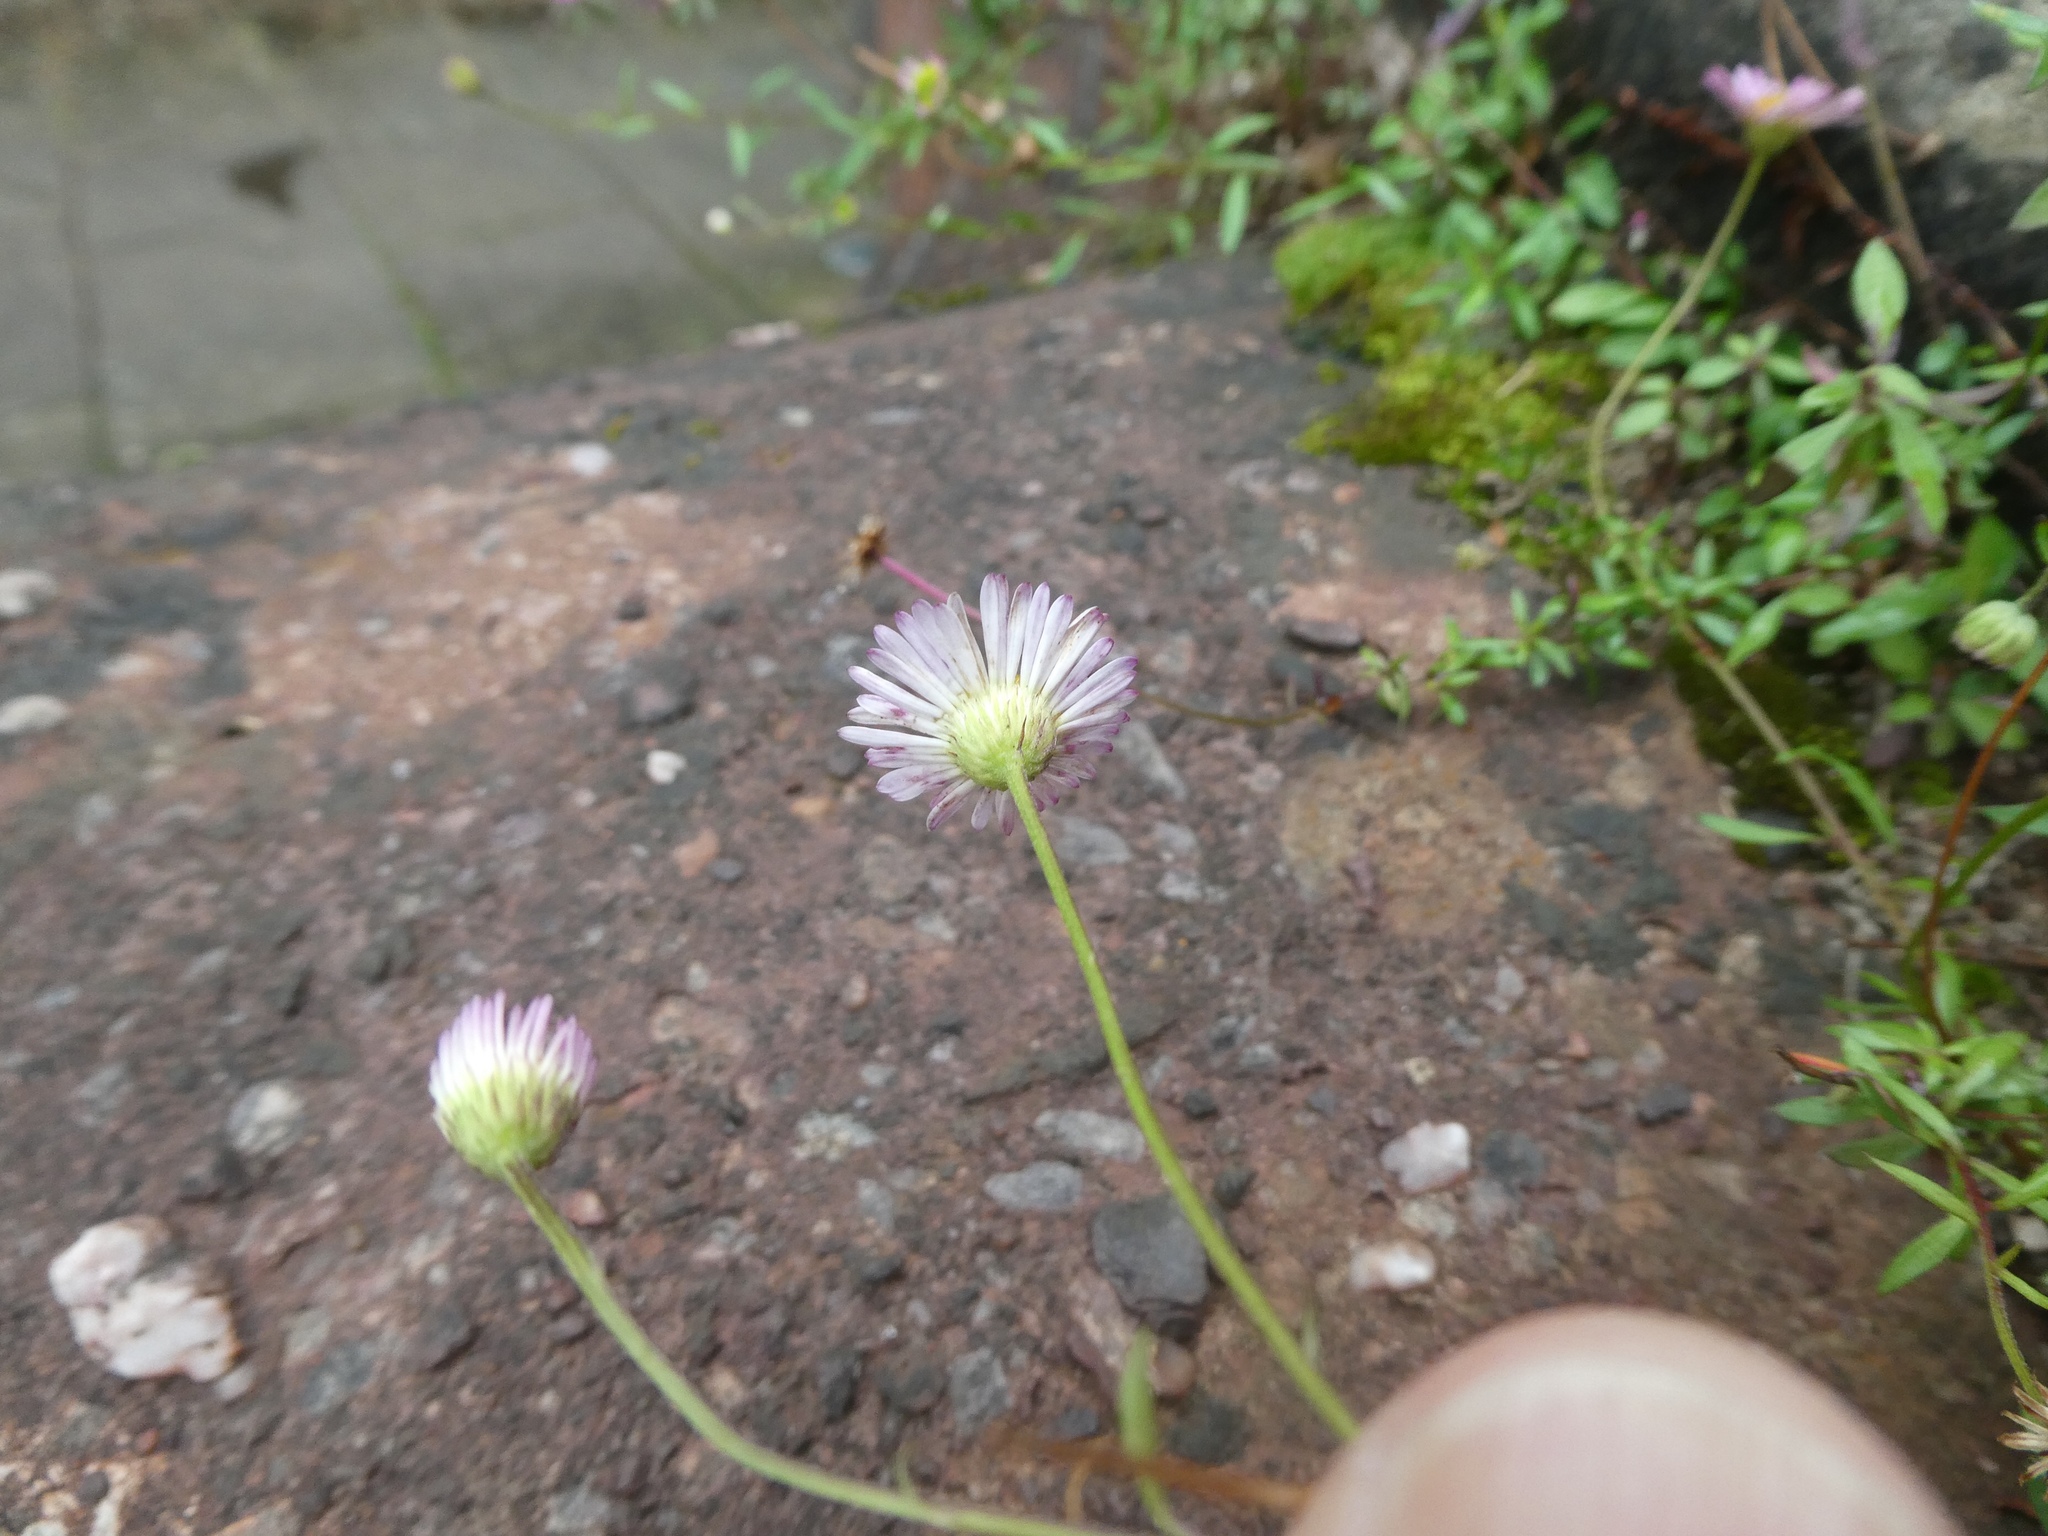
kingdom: Plantae
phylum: Tracheophyta
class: Magnoliopsida
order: Asterales
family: Asteraceae
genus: Erigeron
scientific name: Erigeron karvinskianus
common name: Mexican fleabane
